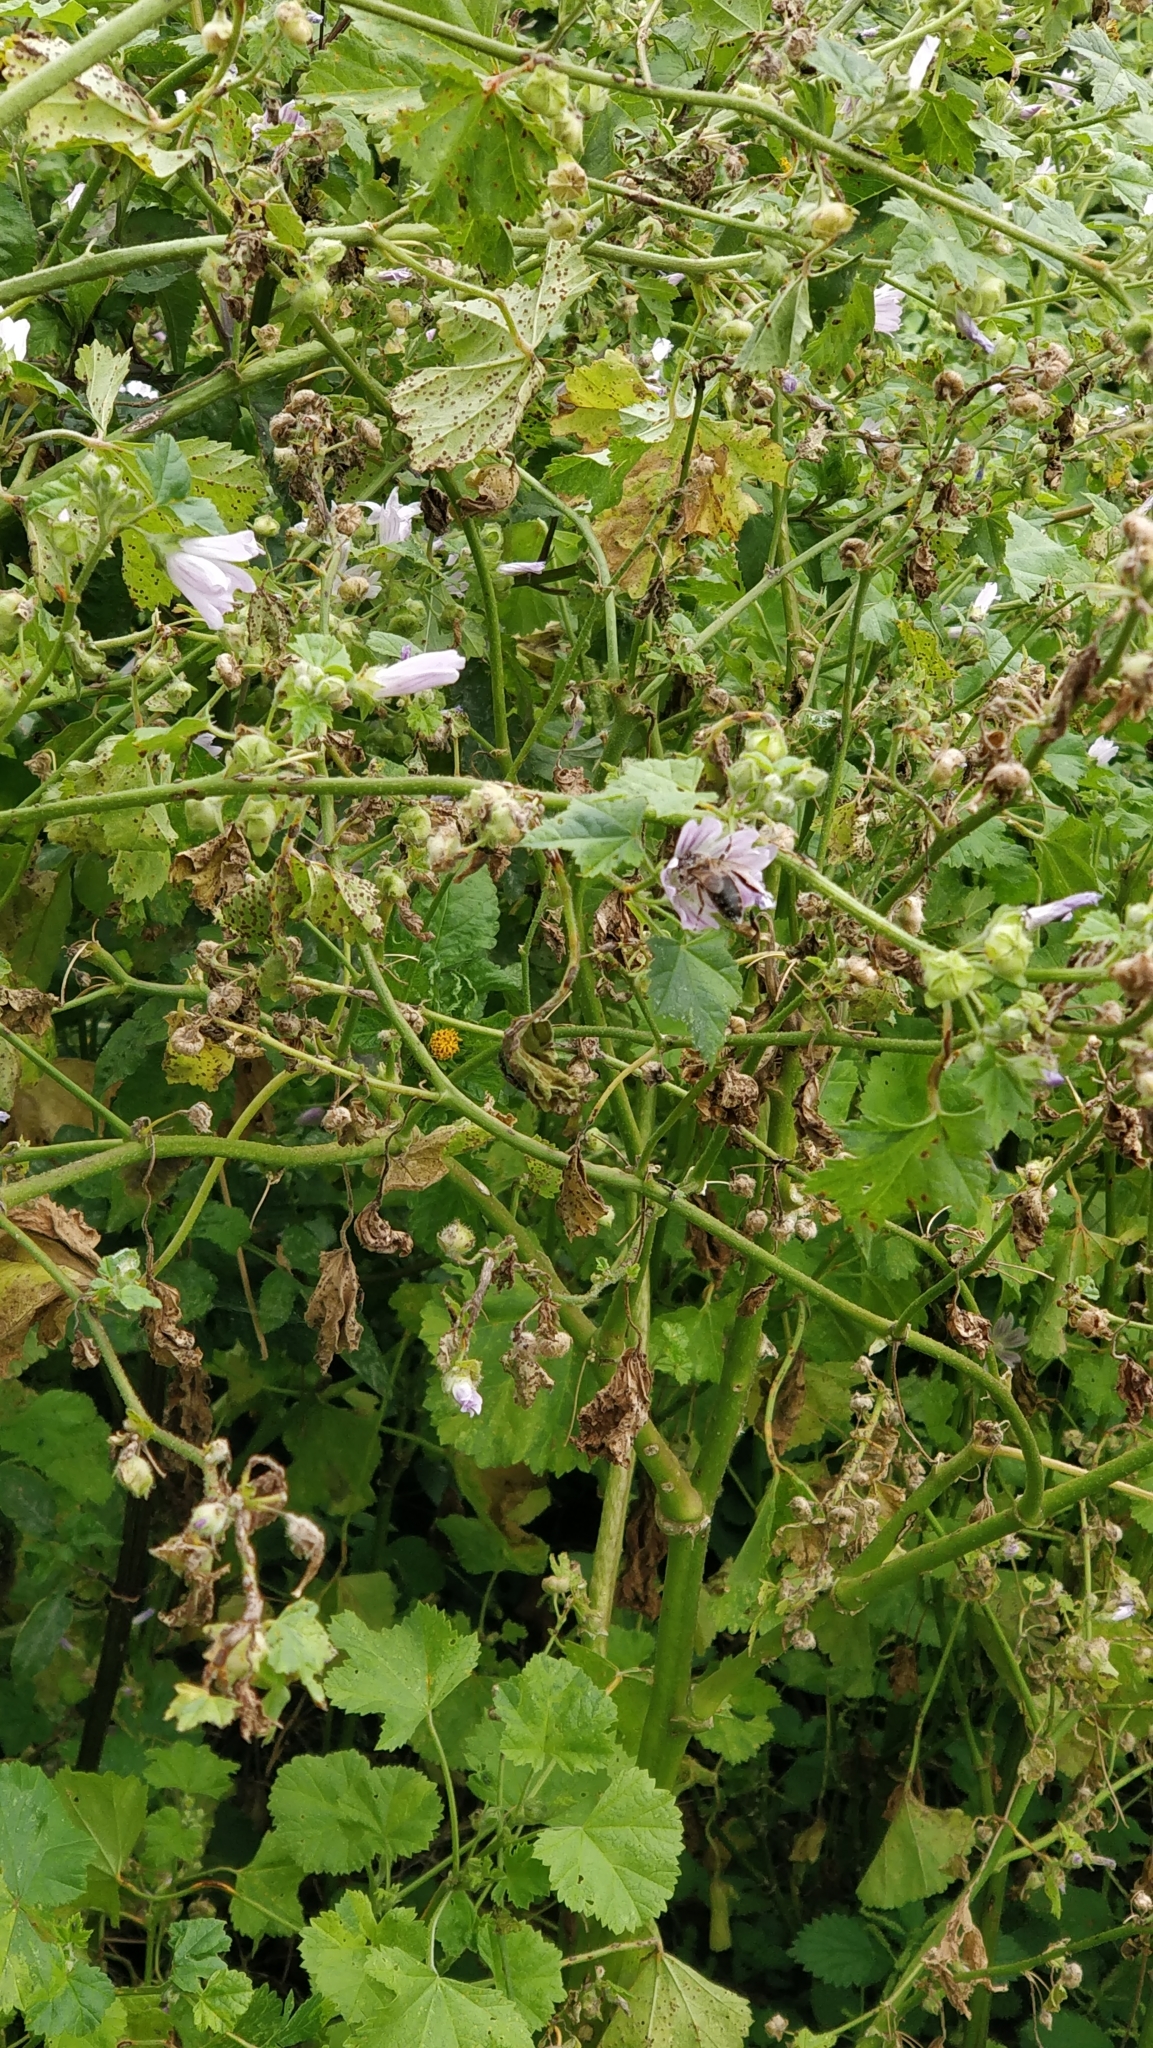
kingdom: Plantae
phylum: Tracheophyta
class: Magnoliopsida
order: Malvales
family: Malvaceae
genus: Malva
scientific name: Malva multiflora
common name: Cheeseweed
